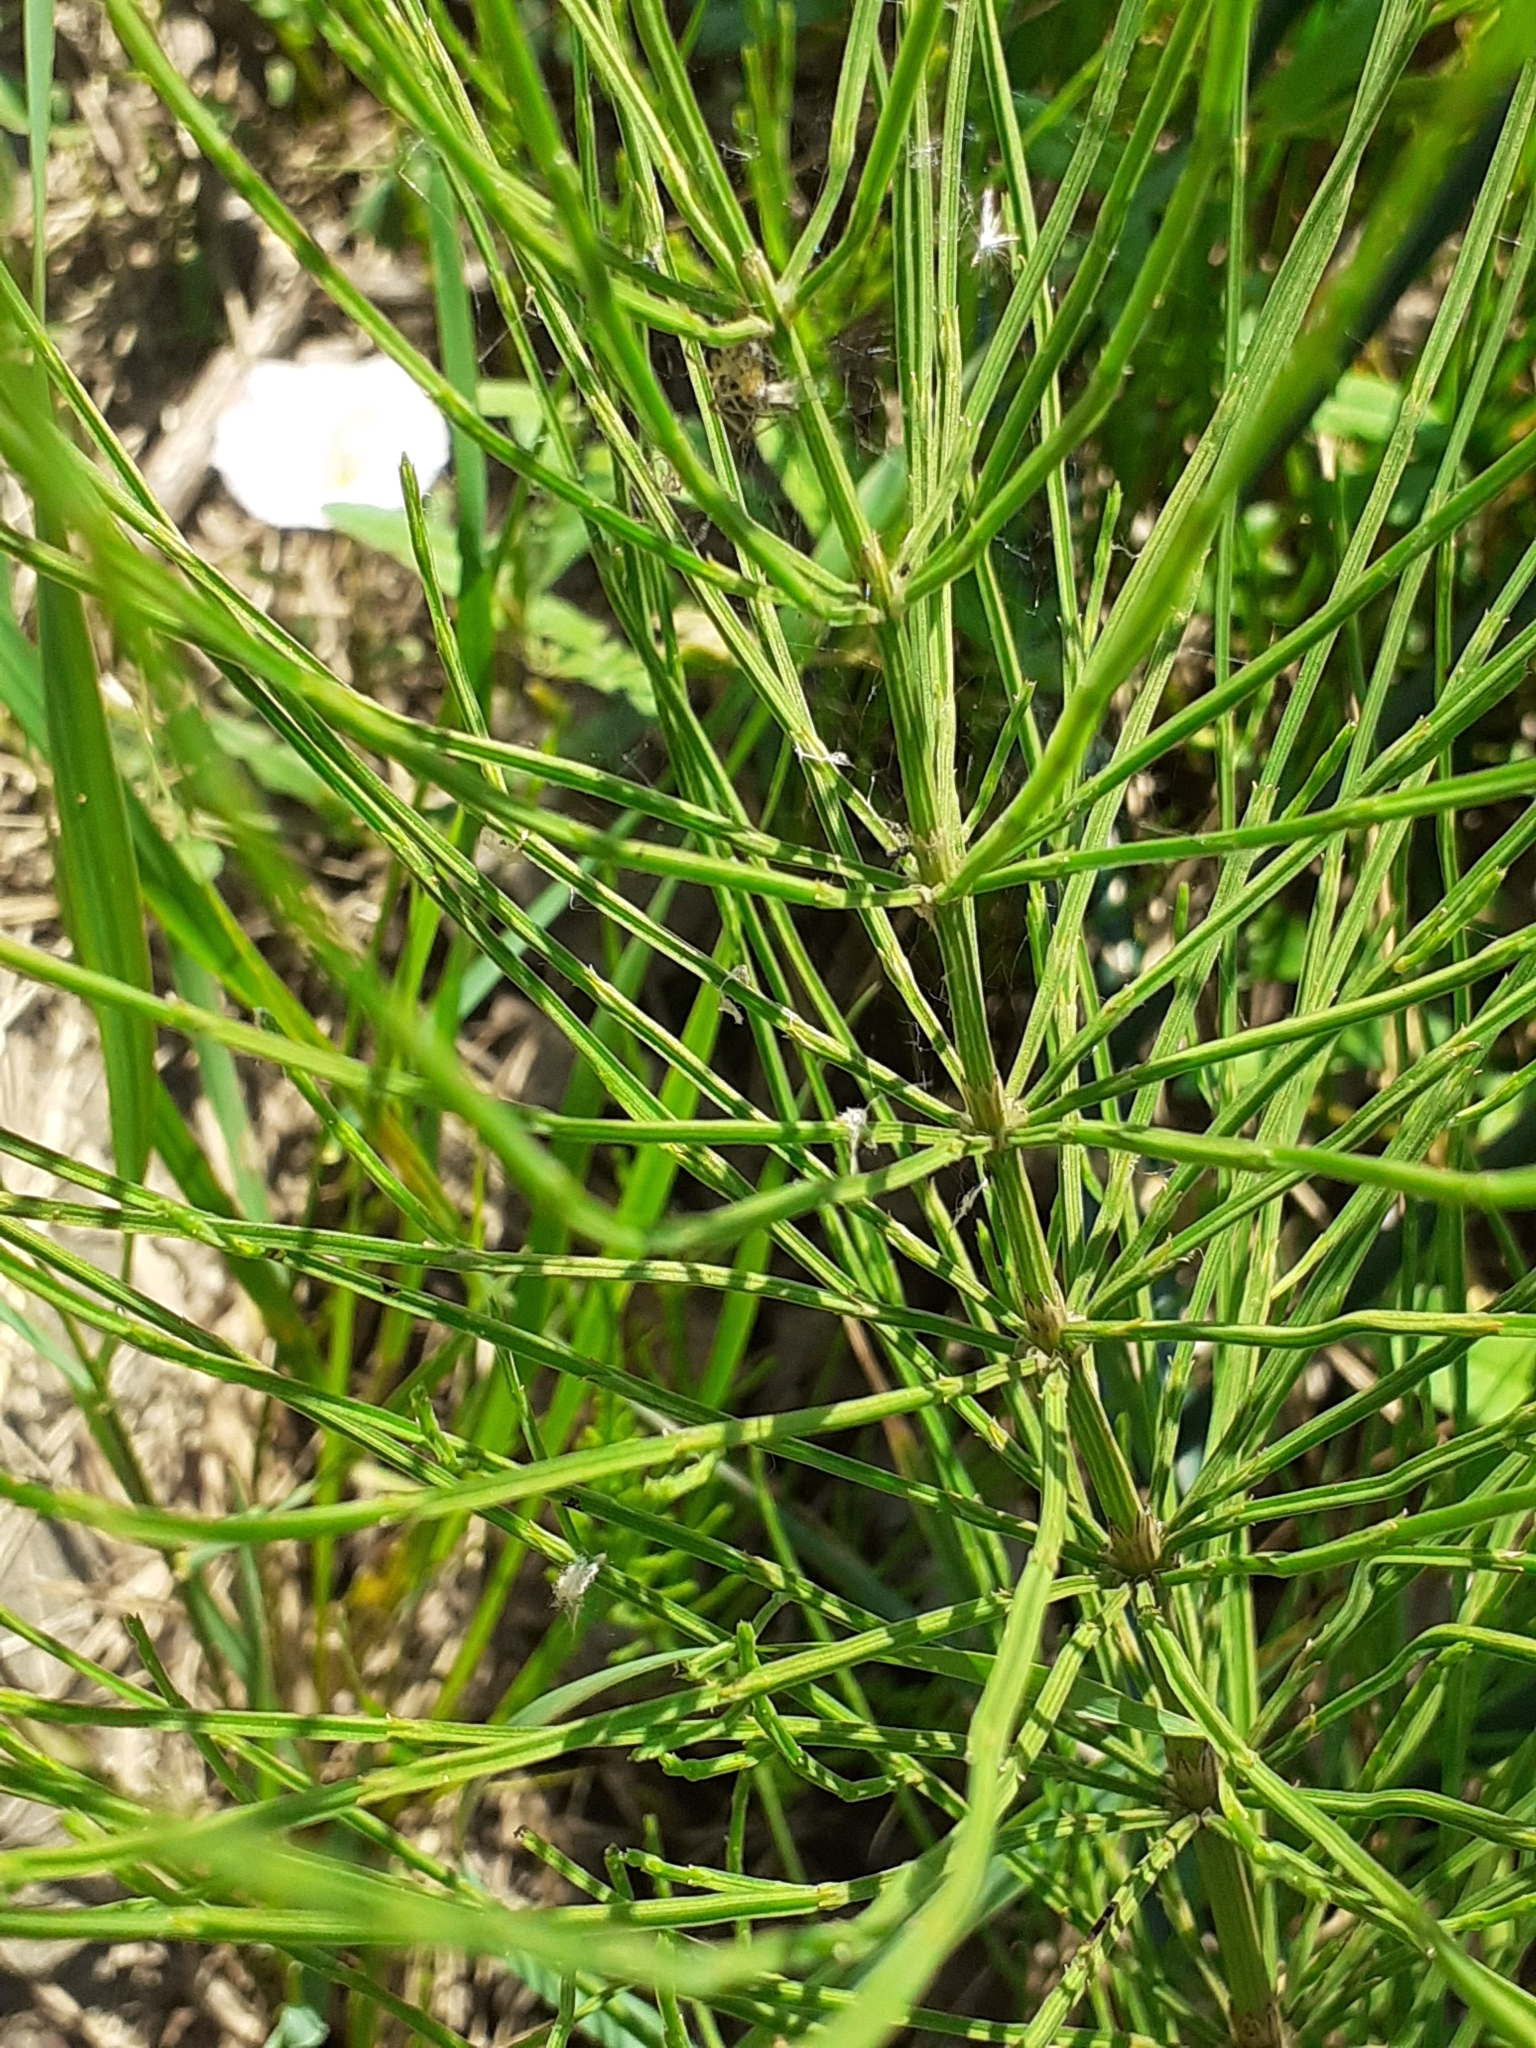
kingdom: Plantae
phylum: Tracheophyta
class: Polypodiopsida
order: Equisetales
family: Equisetaceae
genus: Equisetum
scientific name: Equisetum arvense
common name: Field horsetail
